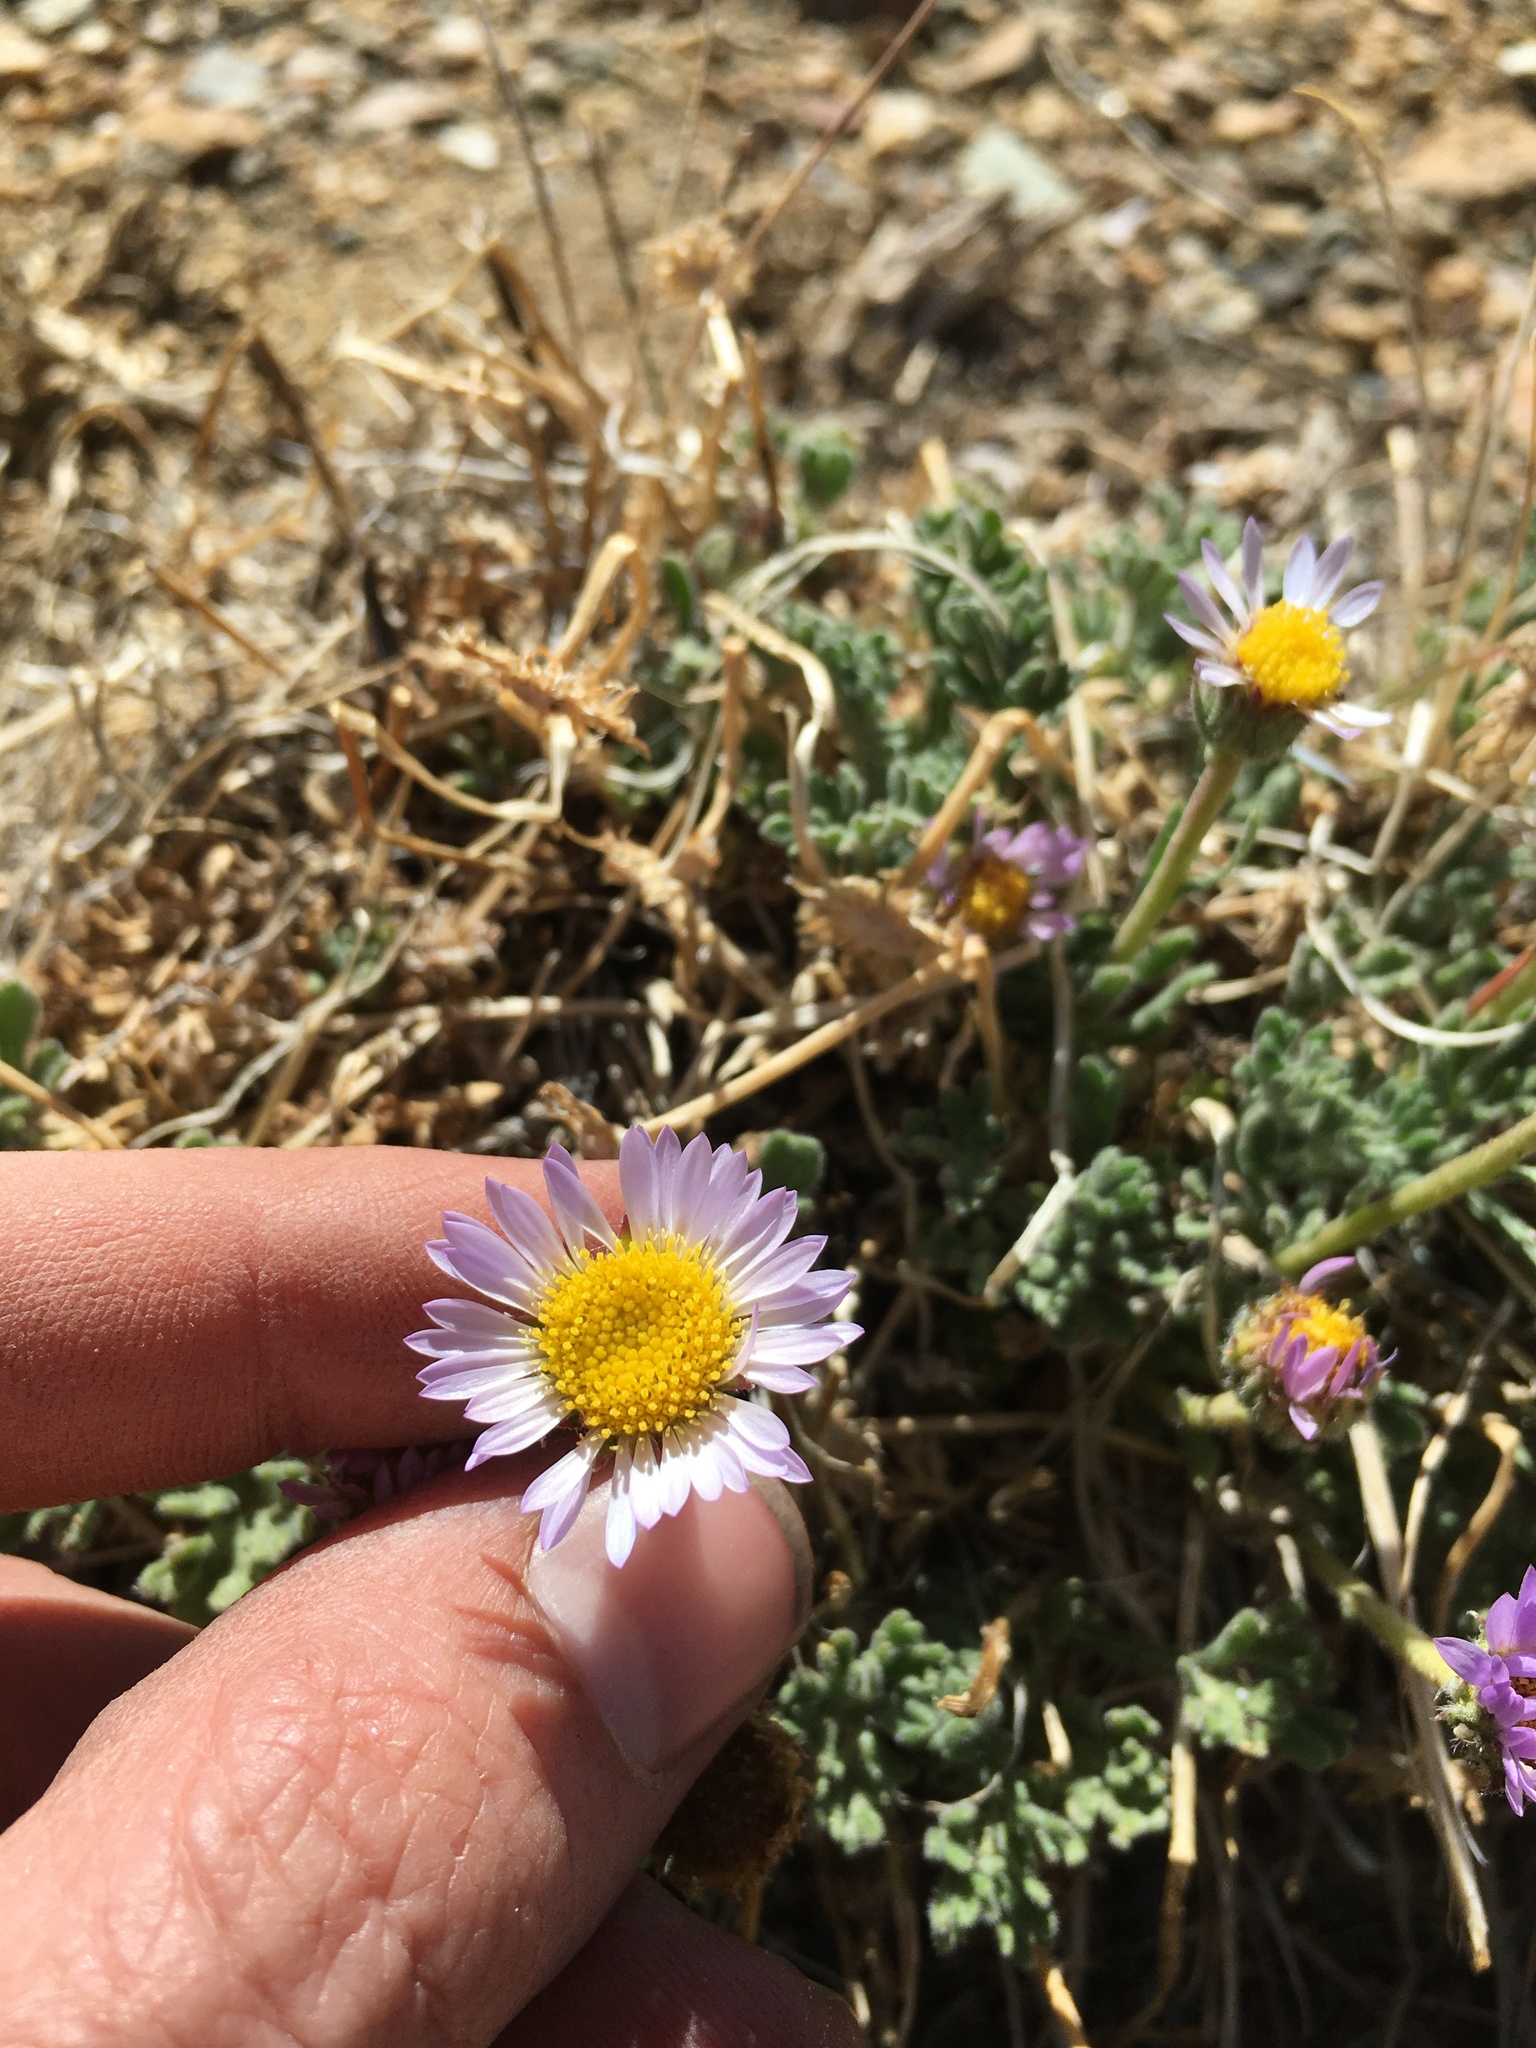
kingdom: Plantae
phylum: Tracheophyta
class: Magnoliopsida
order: Asterales
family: Asteraceae
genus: Erigeron
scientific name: Erigeron compositus
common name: Dwarf mountain fleabane
